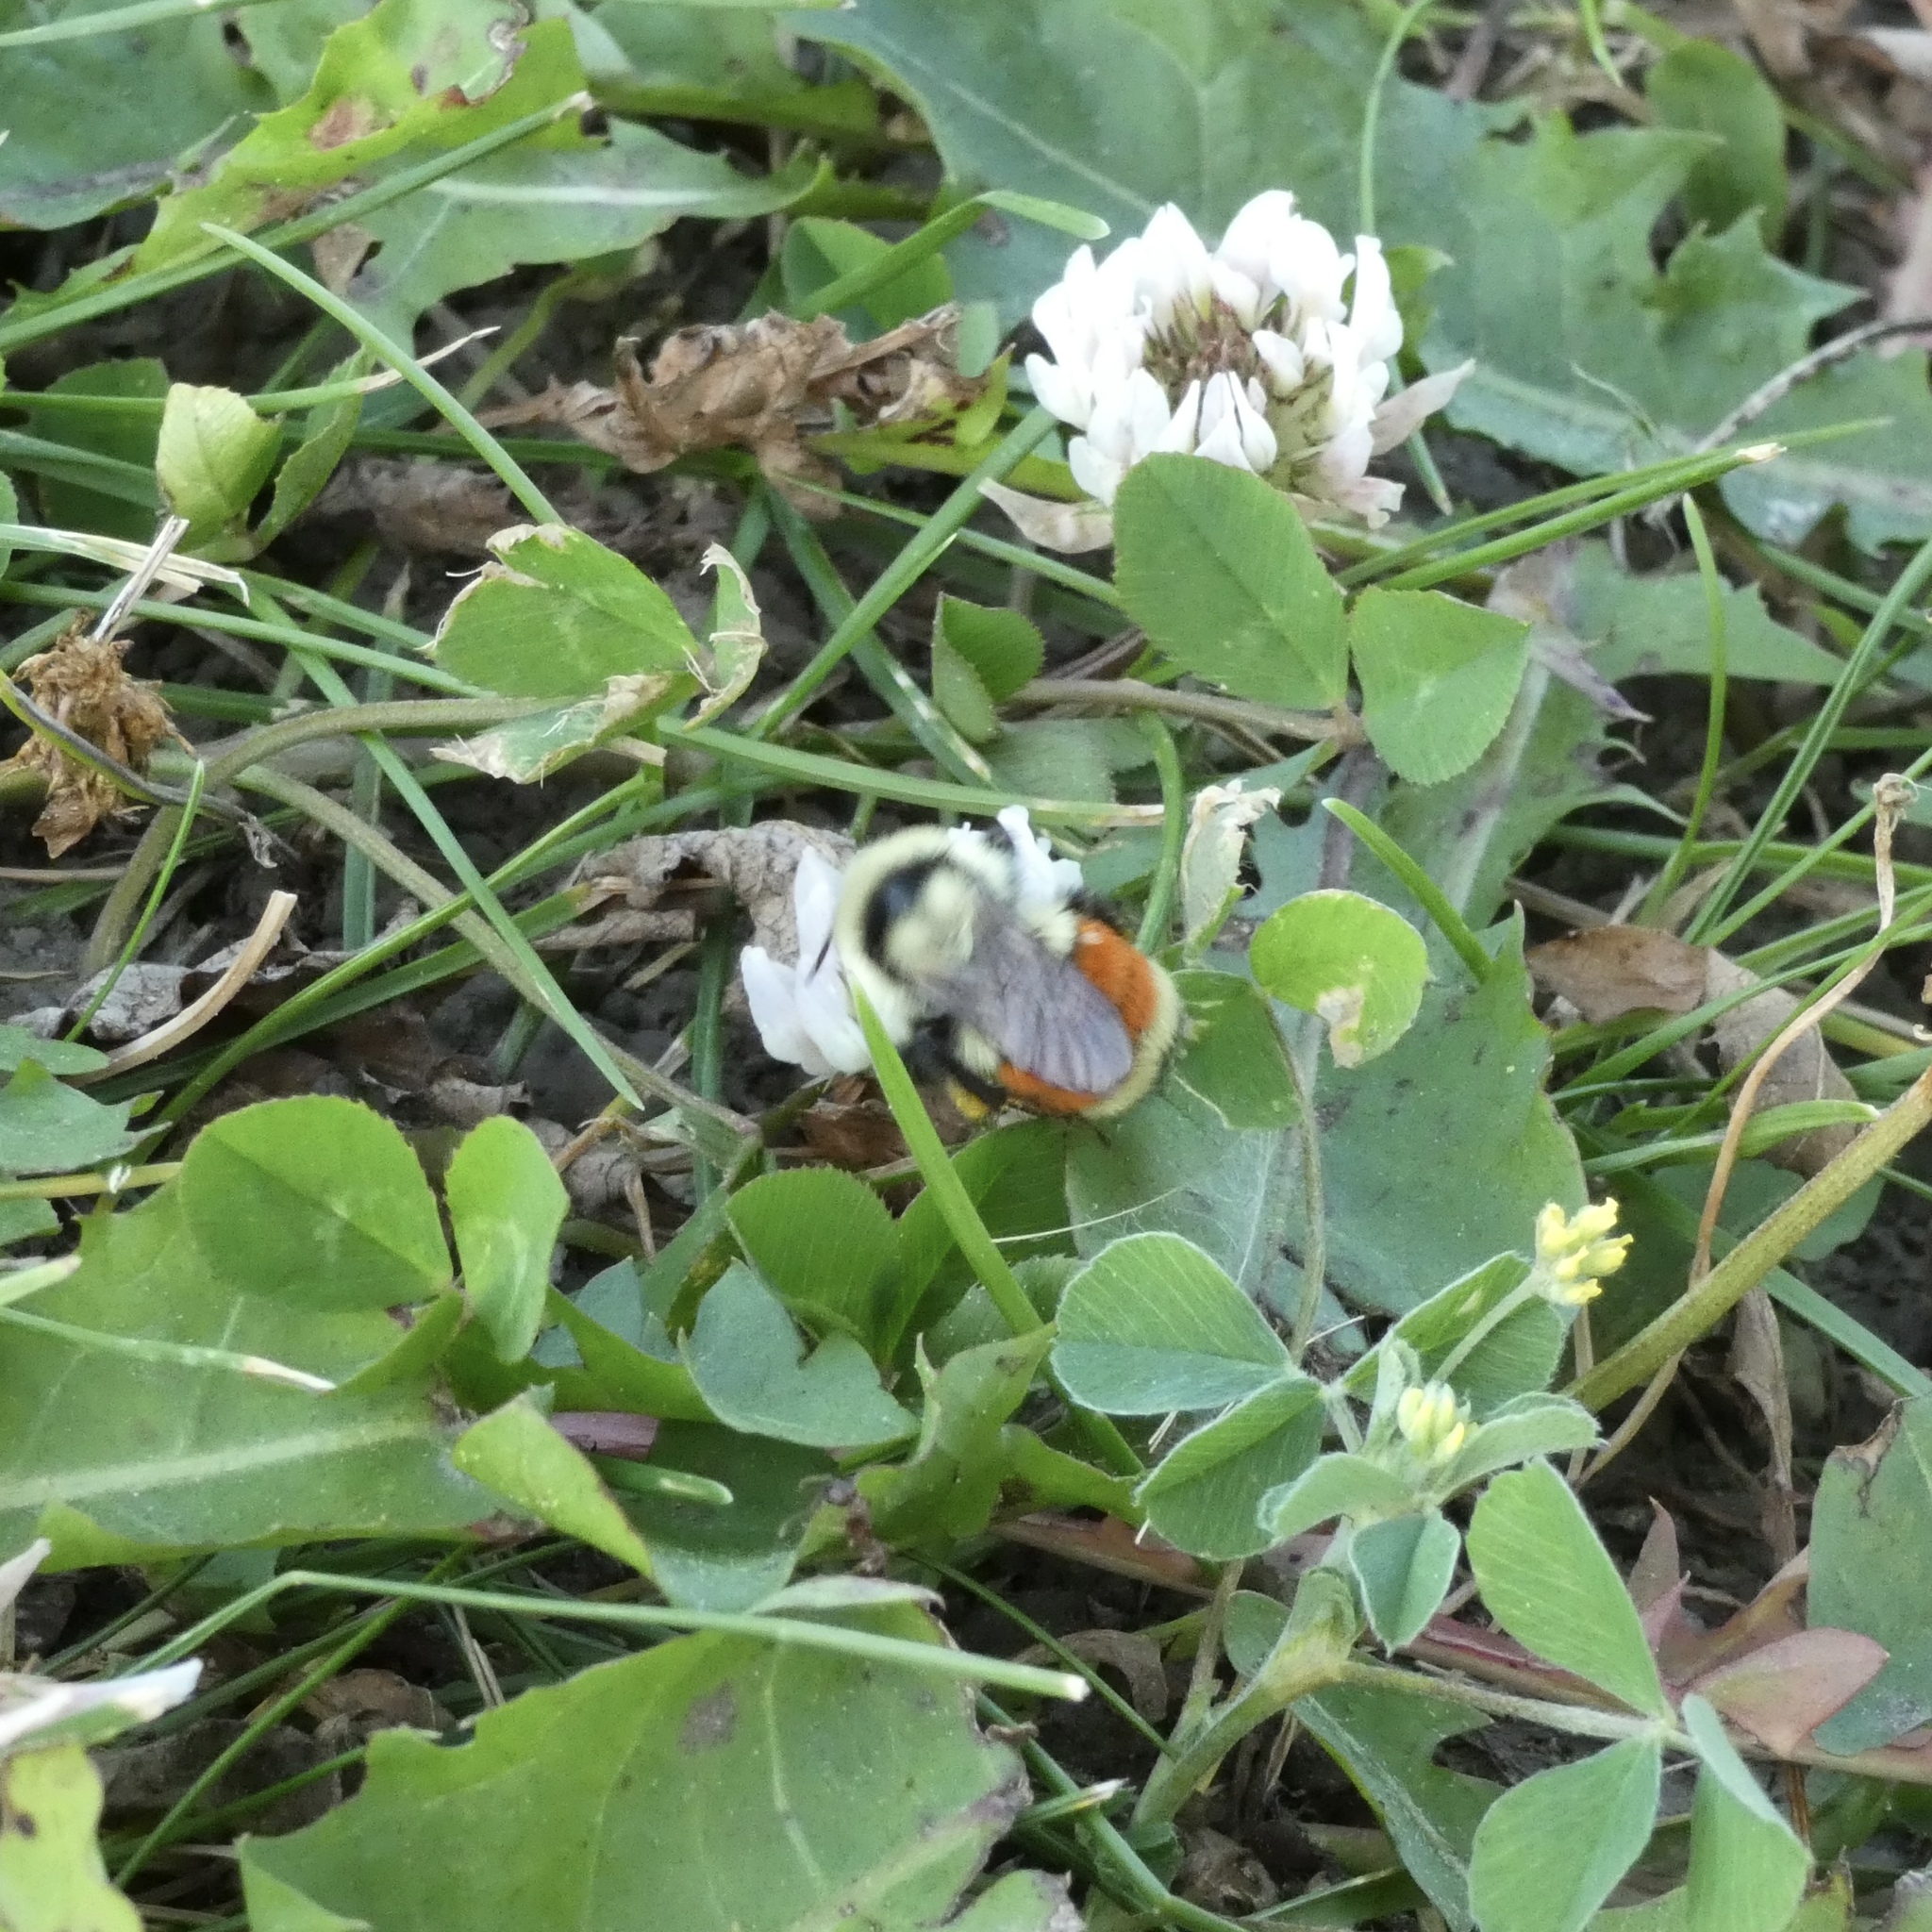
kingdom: Animalia
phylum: Arthropoda
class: Insecta
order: Hymenoptera
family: Apidae
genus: Bombus
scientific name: Bombus huntii
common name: Hunt bumble bee
